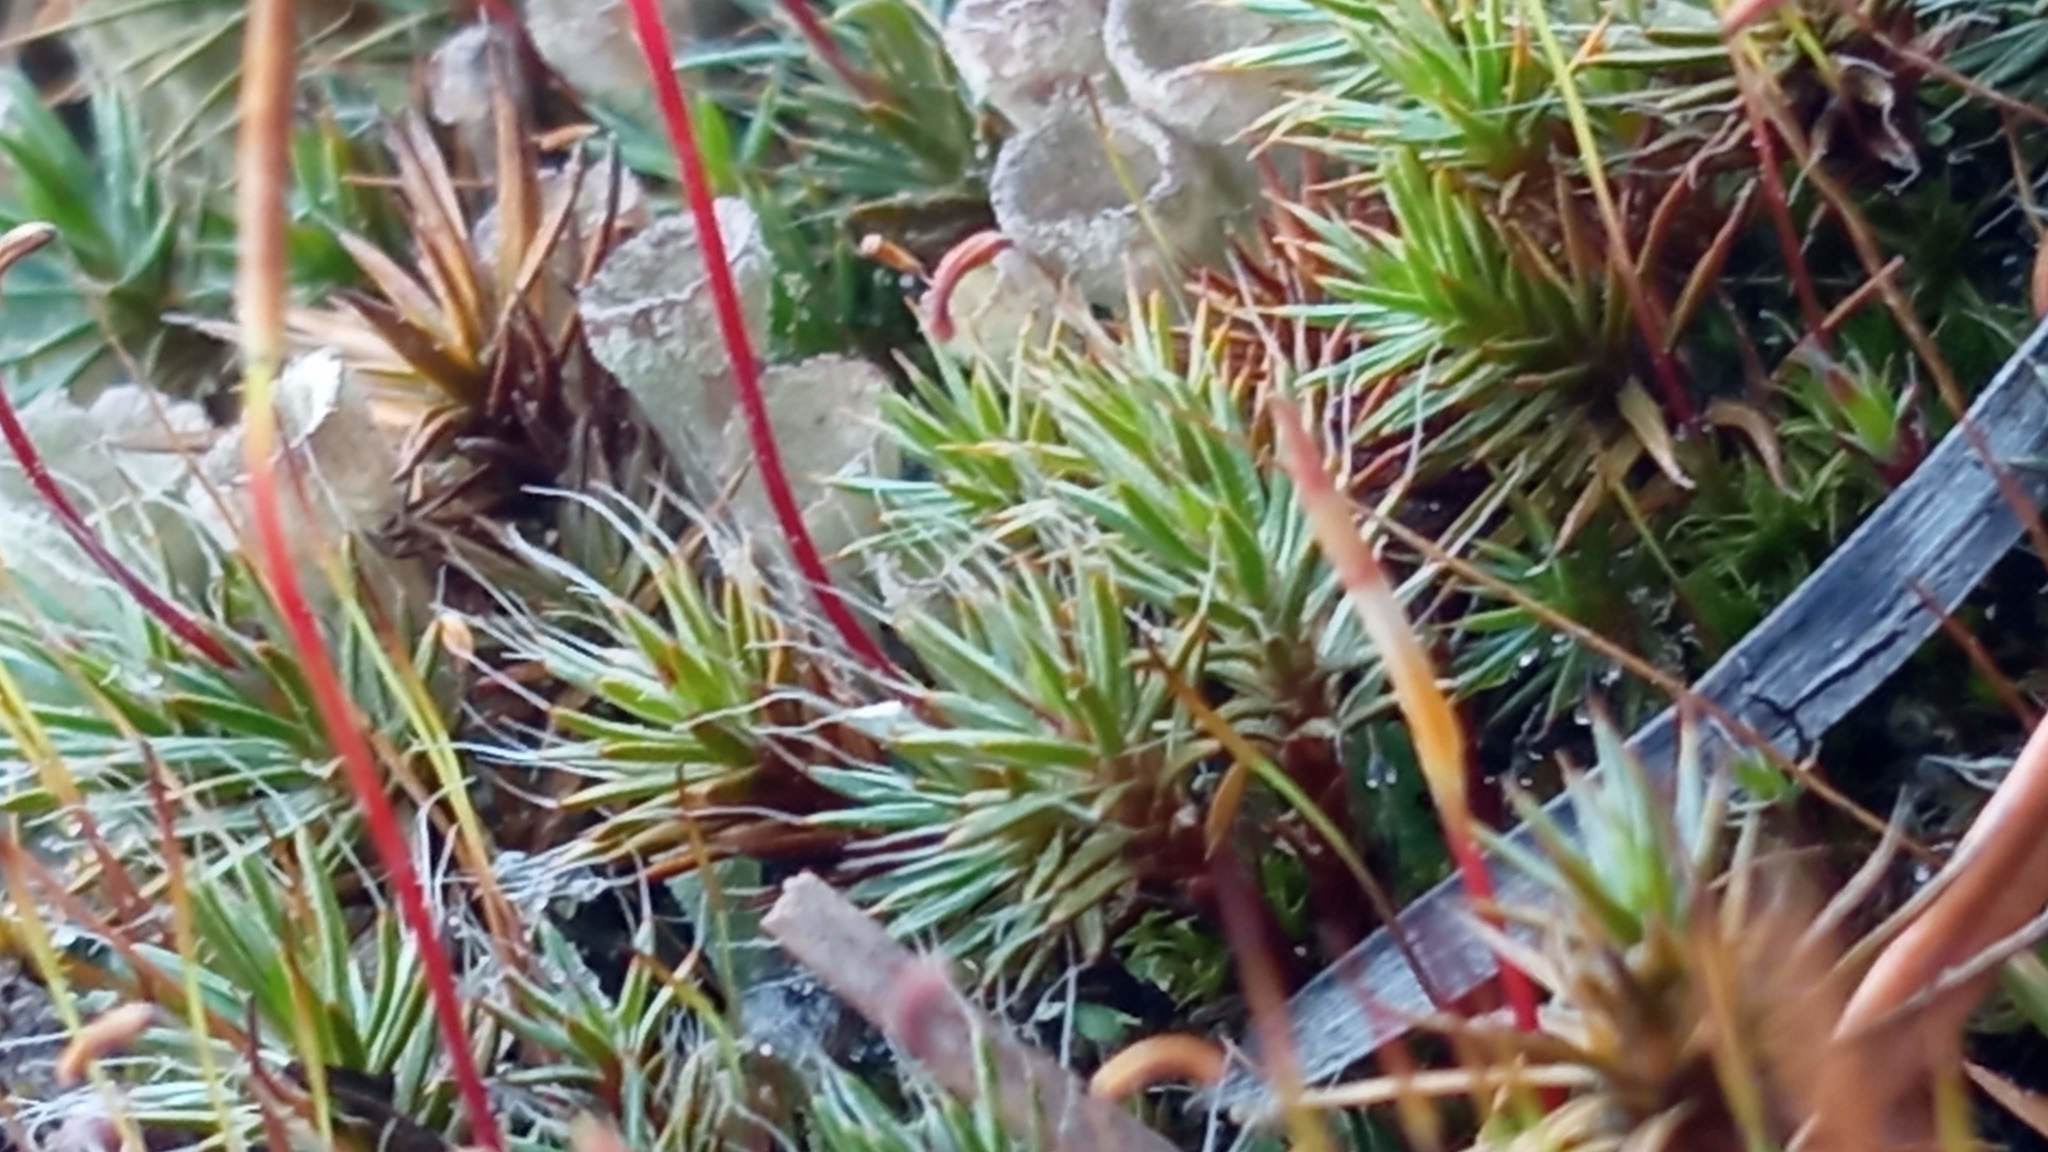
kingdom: Plantae
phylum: Bryophyta
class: Polytrichopsida
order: Polytrichales
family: Polytrichaceae
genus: Polytrichum
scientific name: Polytrichum piliferum
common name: Bristly haircap
